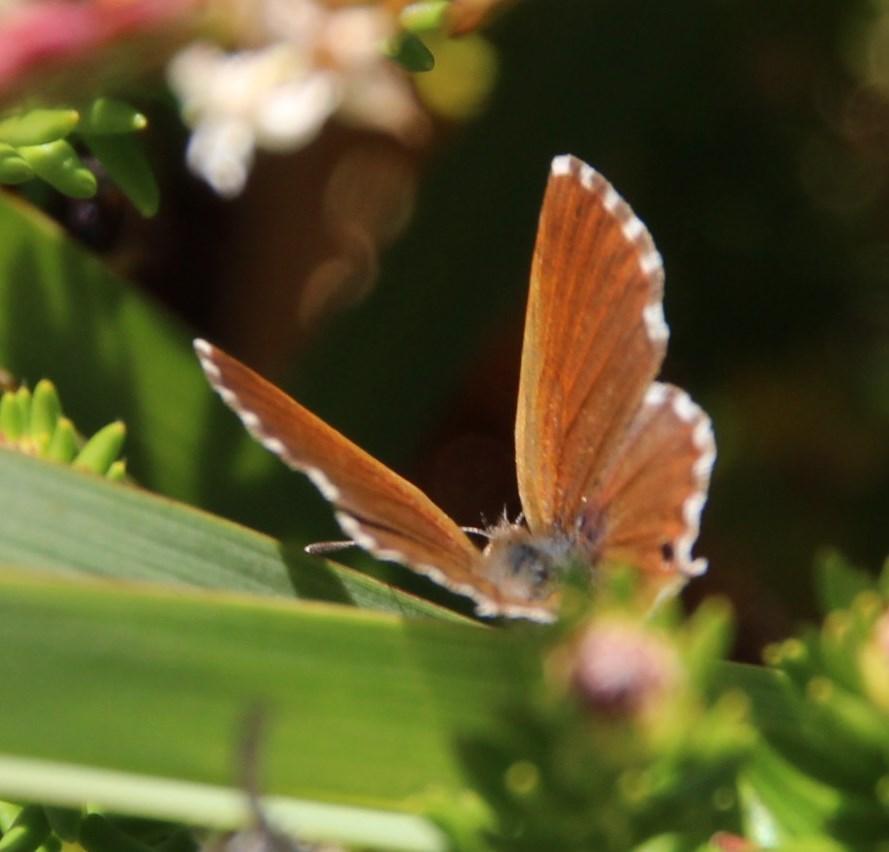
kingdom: Animalia
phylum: Arthropoda
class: Insecta
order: Lepidoptera
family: Lycaenidae
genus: Cacyreus
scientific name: Cacyreus marshalli
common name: Geranium bronze
